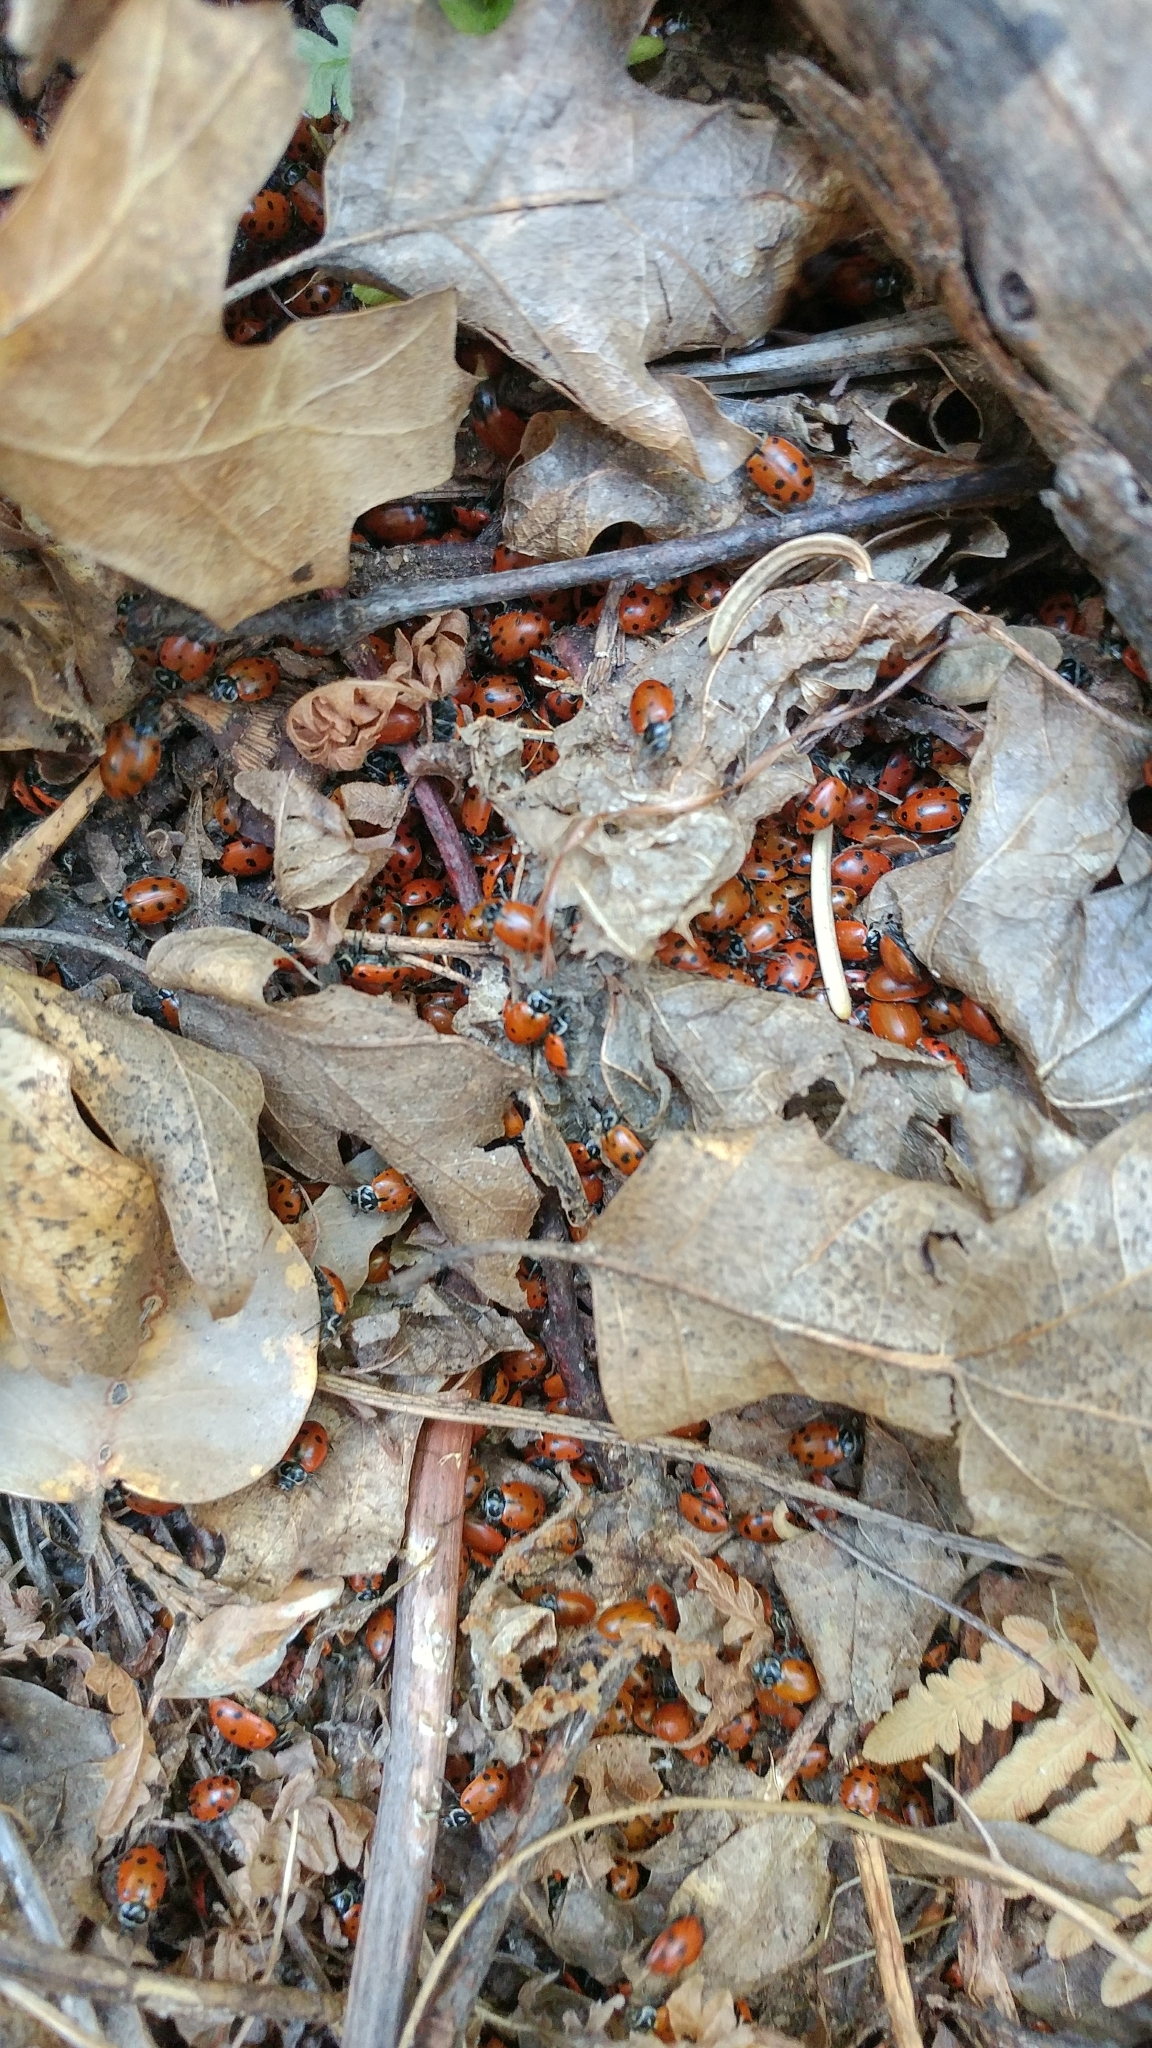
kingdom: Animalia
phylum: Arthropoda
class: Insecta
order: Coleoptera
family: Coccinellidae
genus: Hippodamia
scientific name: Hippodamia convergens
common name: Convergent lady beetle
